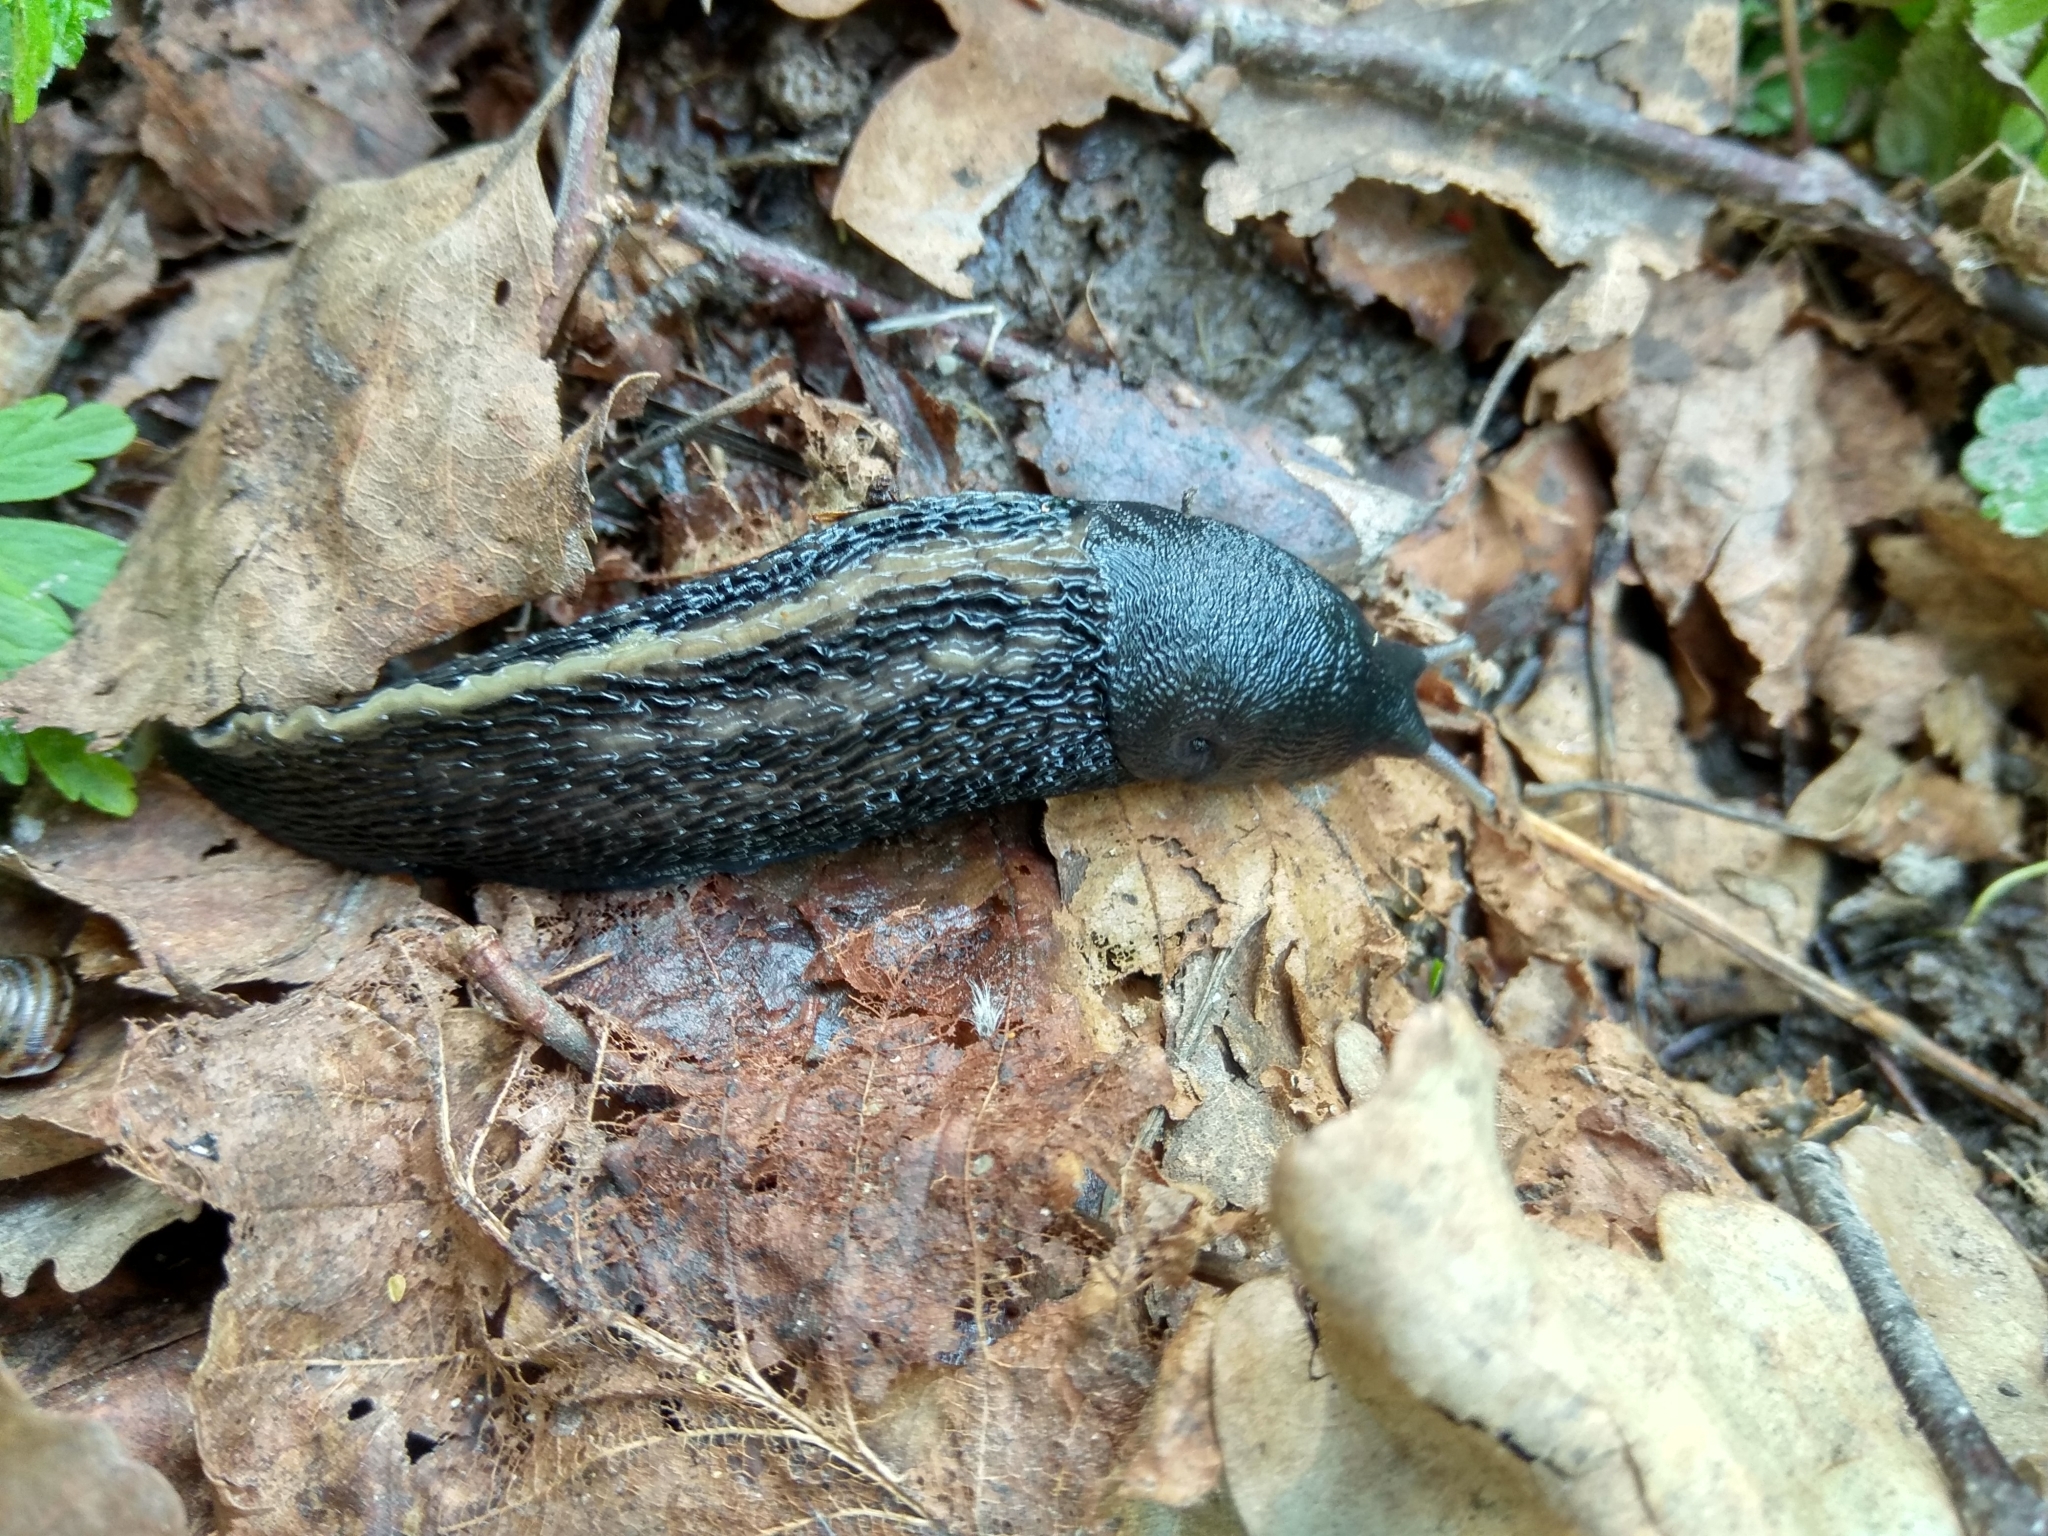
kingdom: Animalia
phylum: Mollusca
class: Gastropoda
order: Stylommatophora
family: Limacidae
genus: Limax
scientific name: Limax cinereoniger
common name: Ash-black slug
